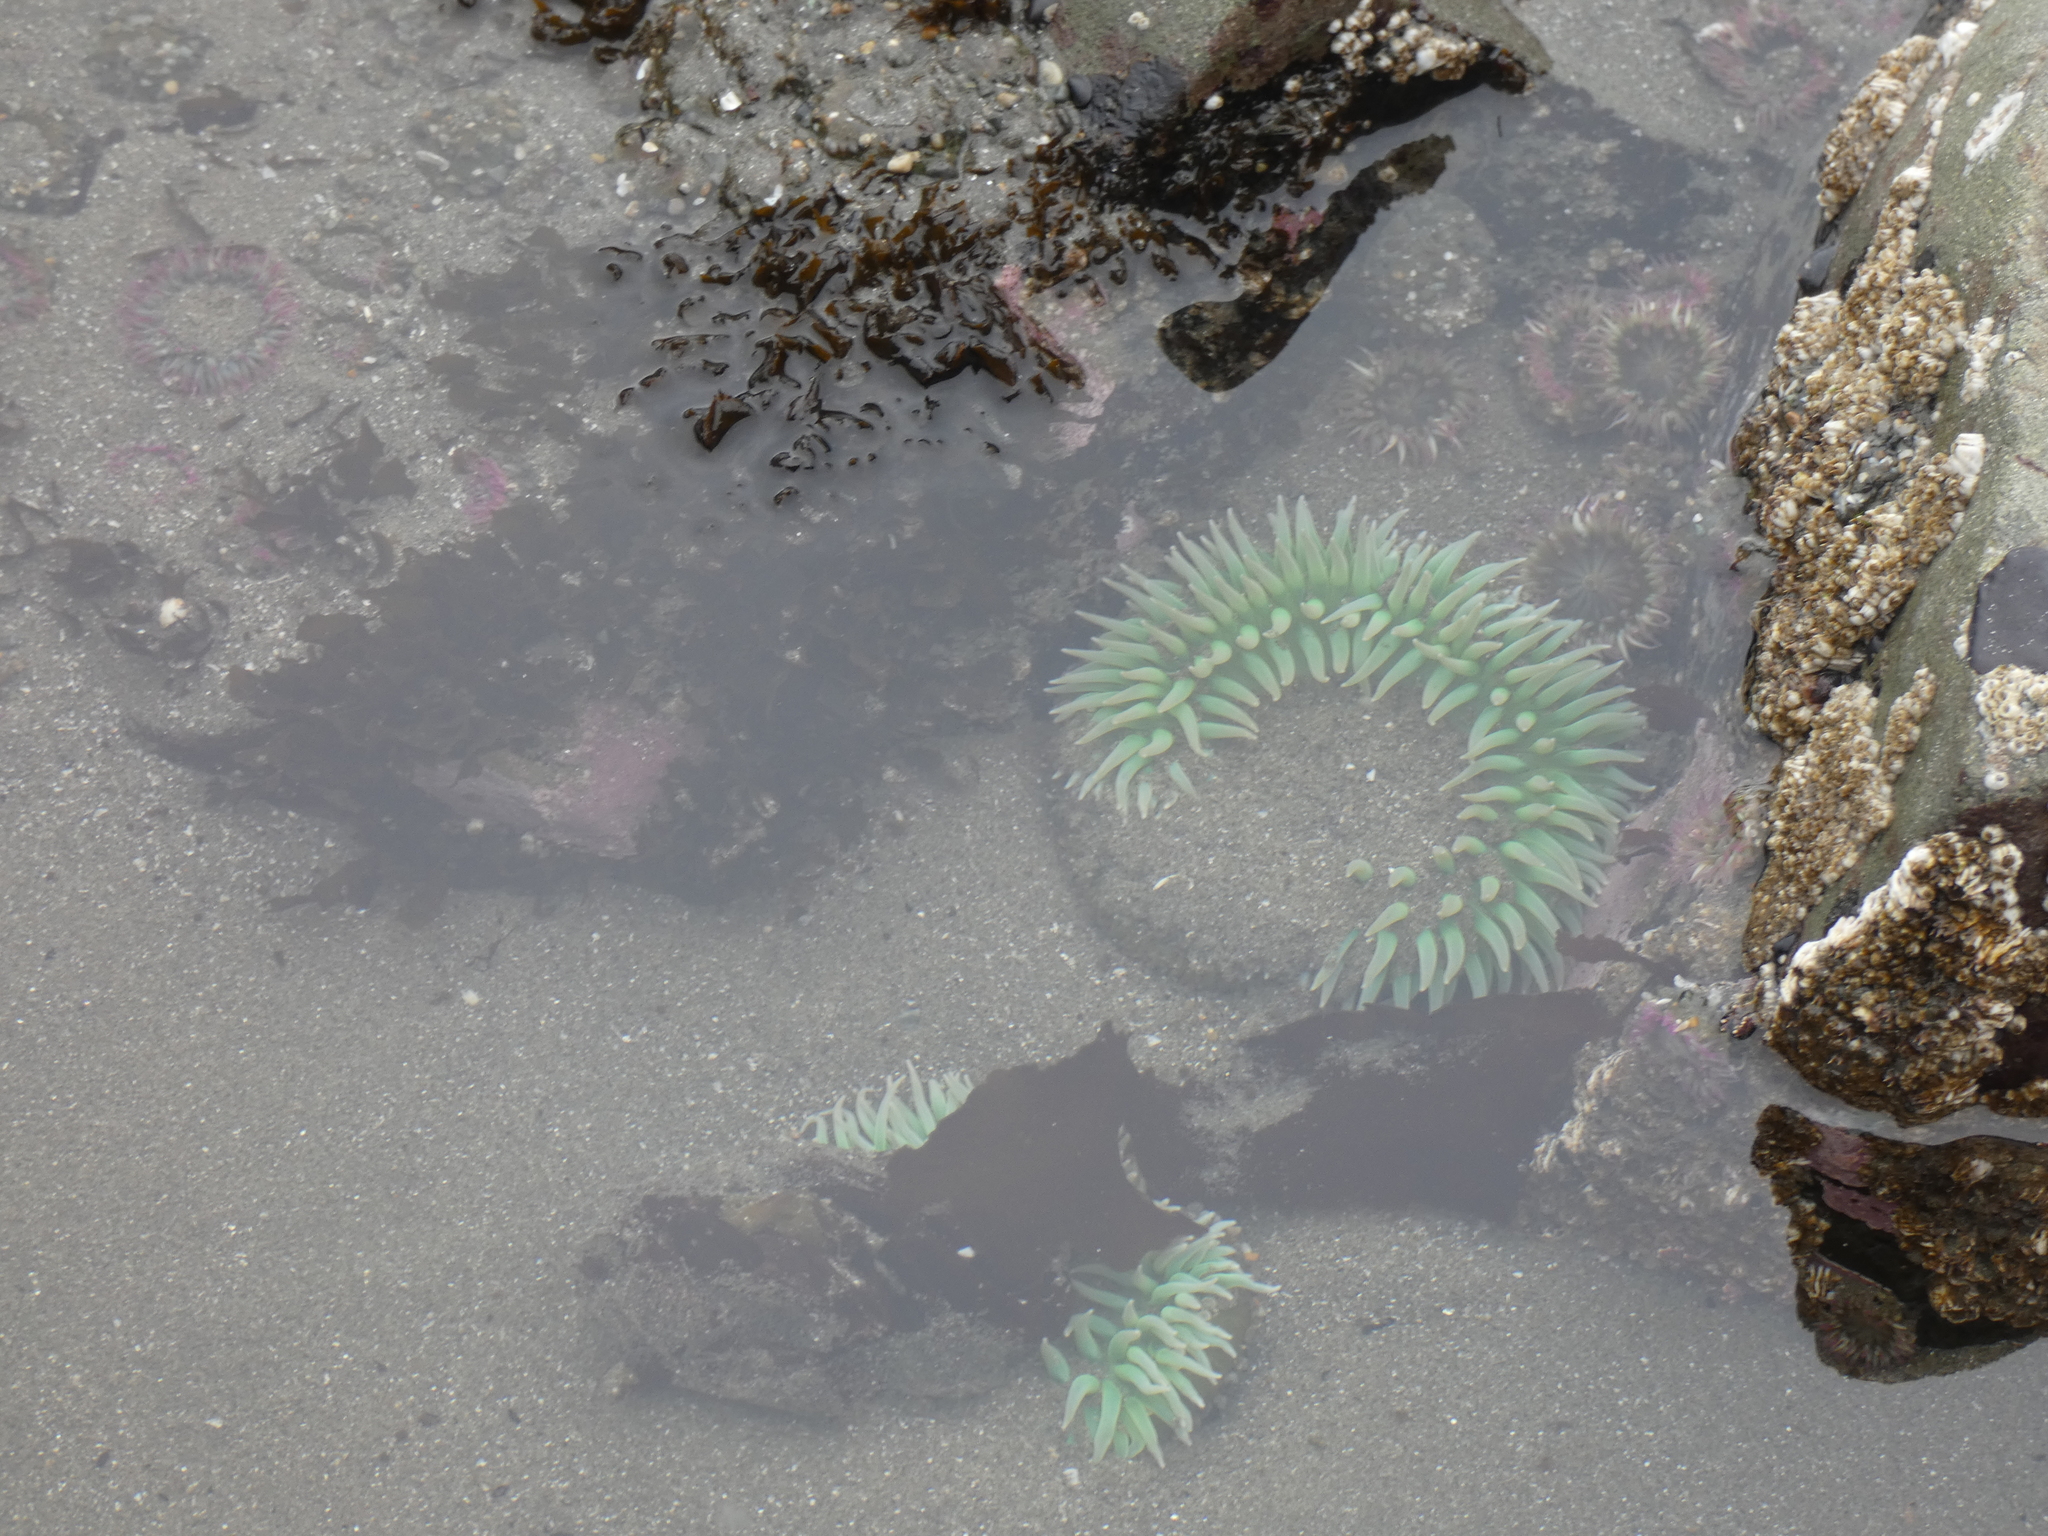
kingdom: Animalia
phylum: Cnidaria
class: Anthozoa
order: Actiniaria
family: Actiniidae
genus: Anthopleura
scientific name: Anthopleura xanthogrammica
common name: Giant green anemone
